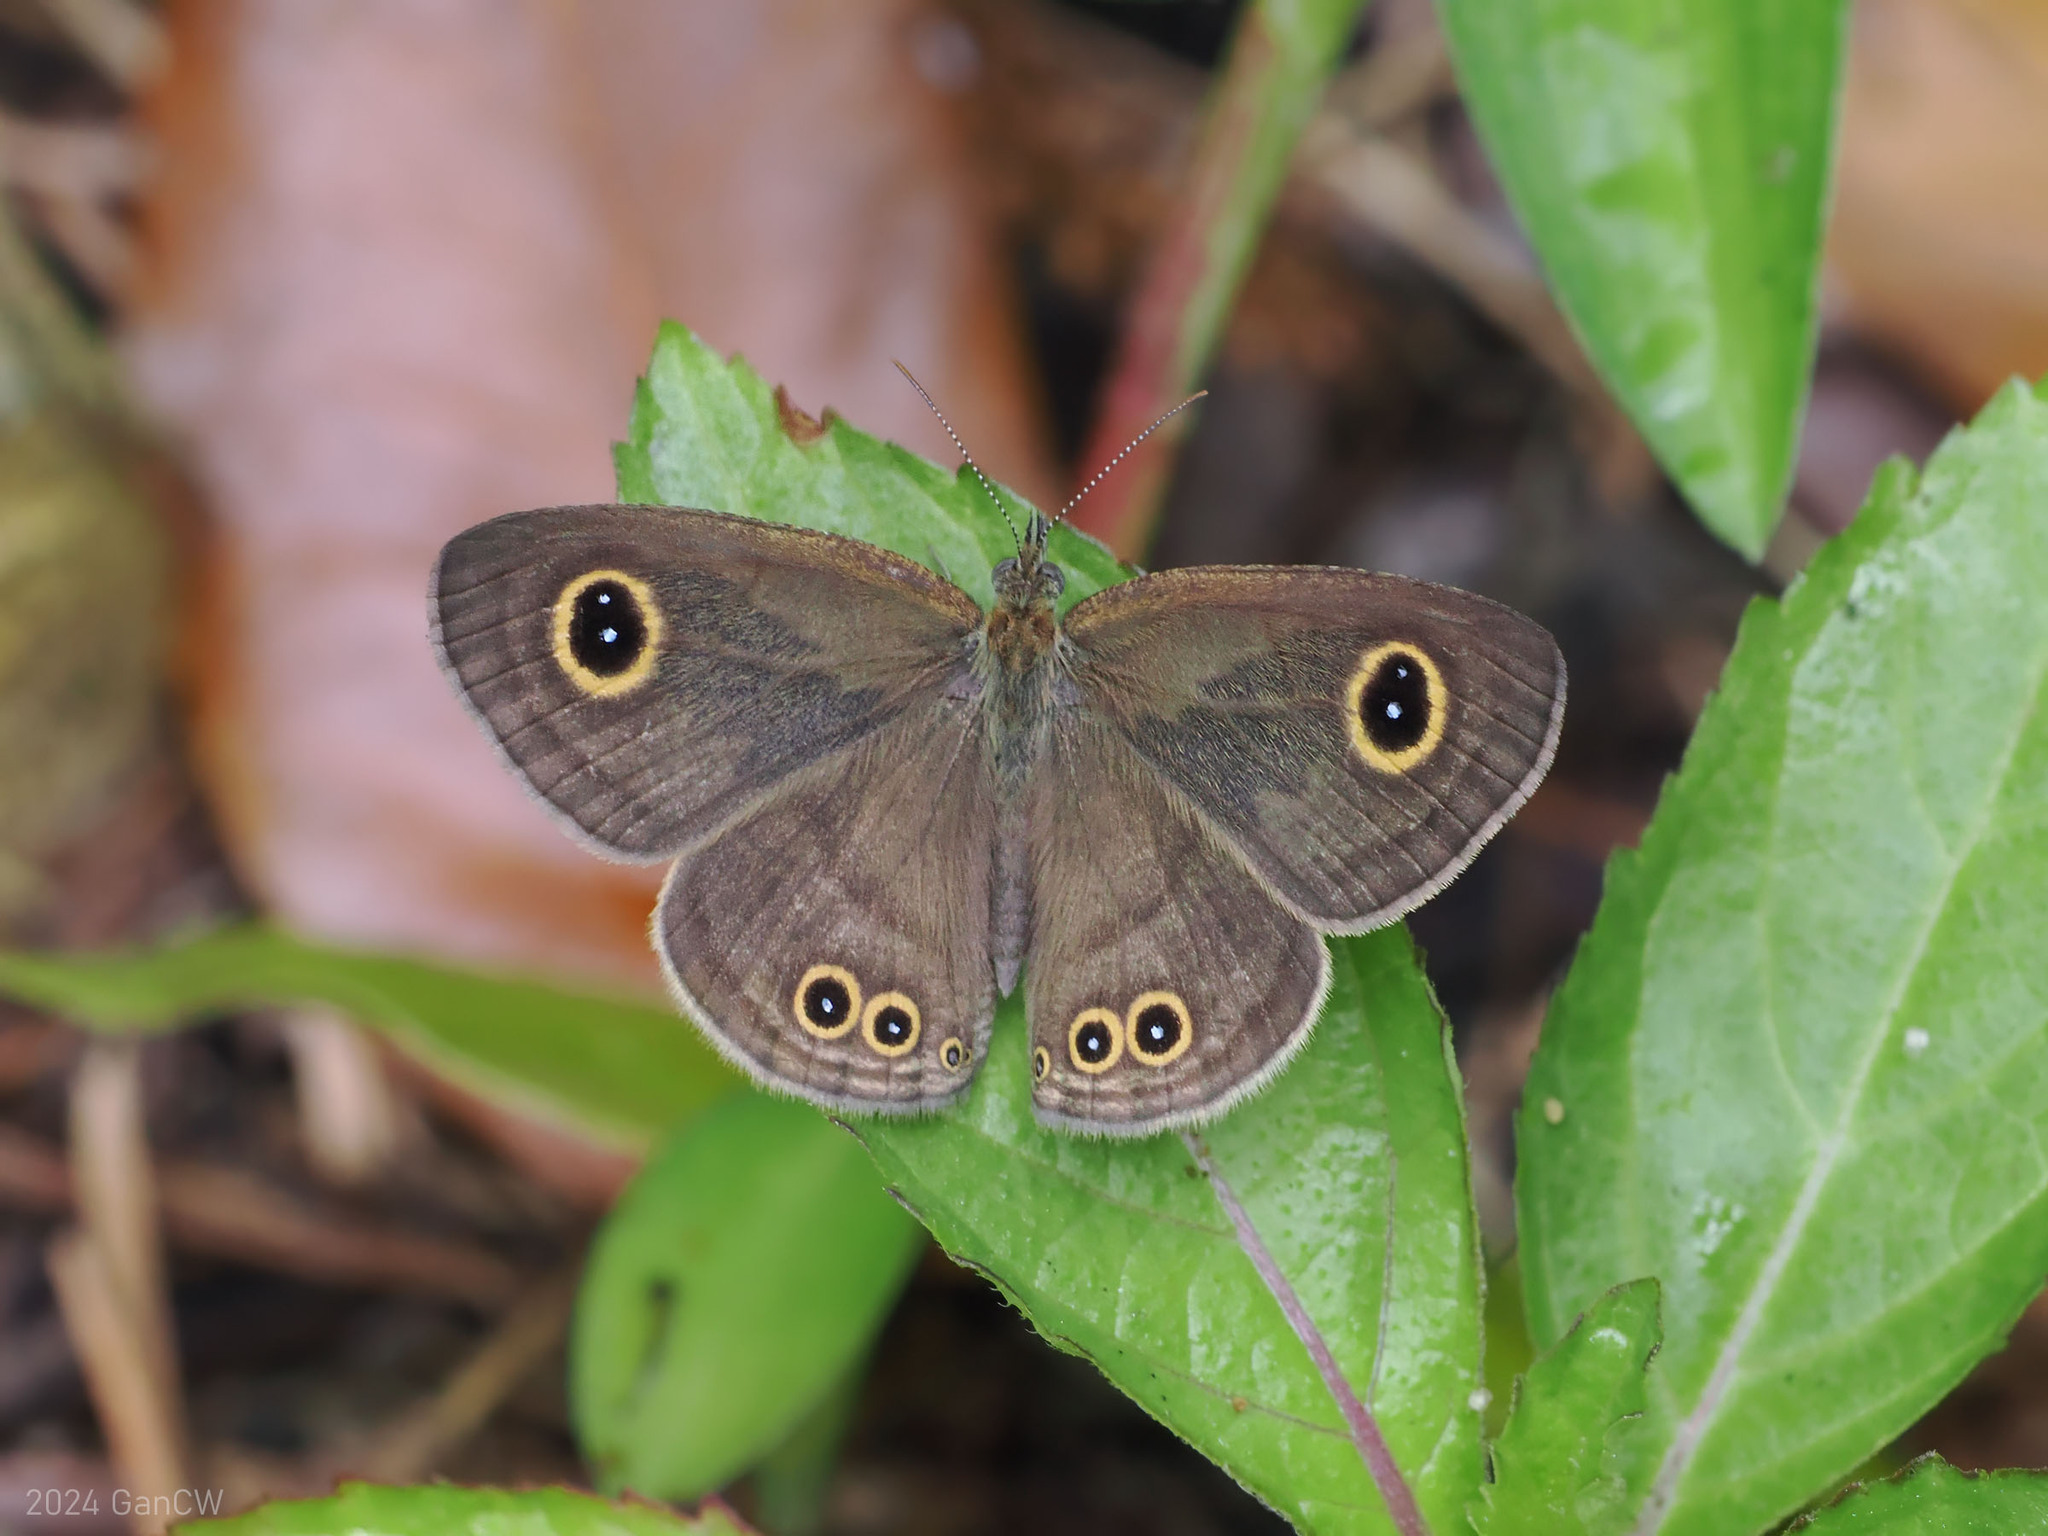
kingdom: Animalia
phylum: Arthropoda
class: Insecta
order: Lepidoptera
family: Nymphalidae
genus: Ypthima
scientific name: Ypthima stellera
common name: Philippine five-ring
